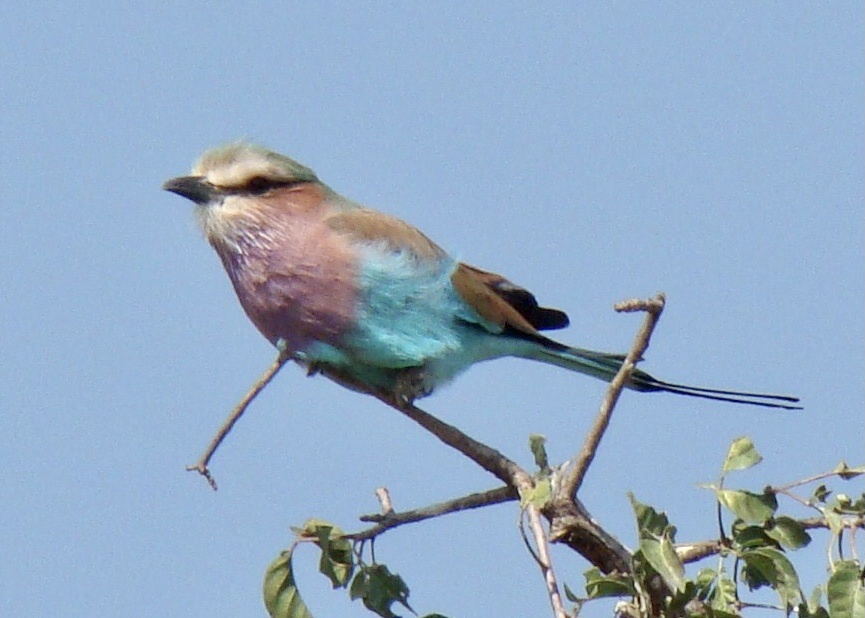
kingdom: Animalia
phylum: Chordata
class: Aves
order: Coraciiformes
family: Coraciidae
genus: Coracias
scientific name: Coracias caudatus
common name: Lilac-breasted roller
